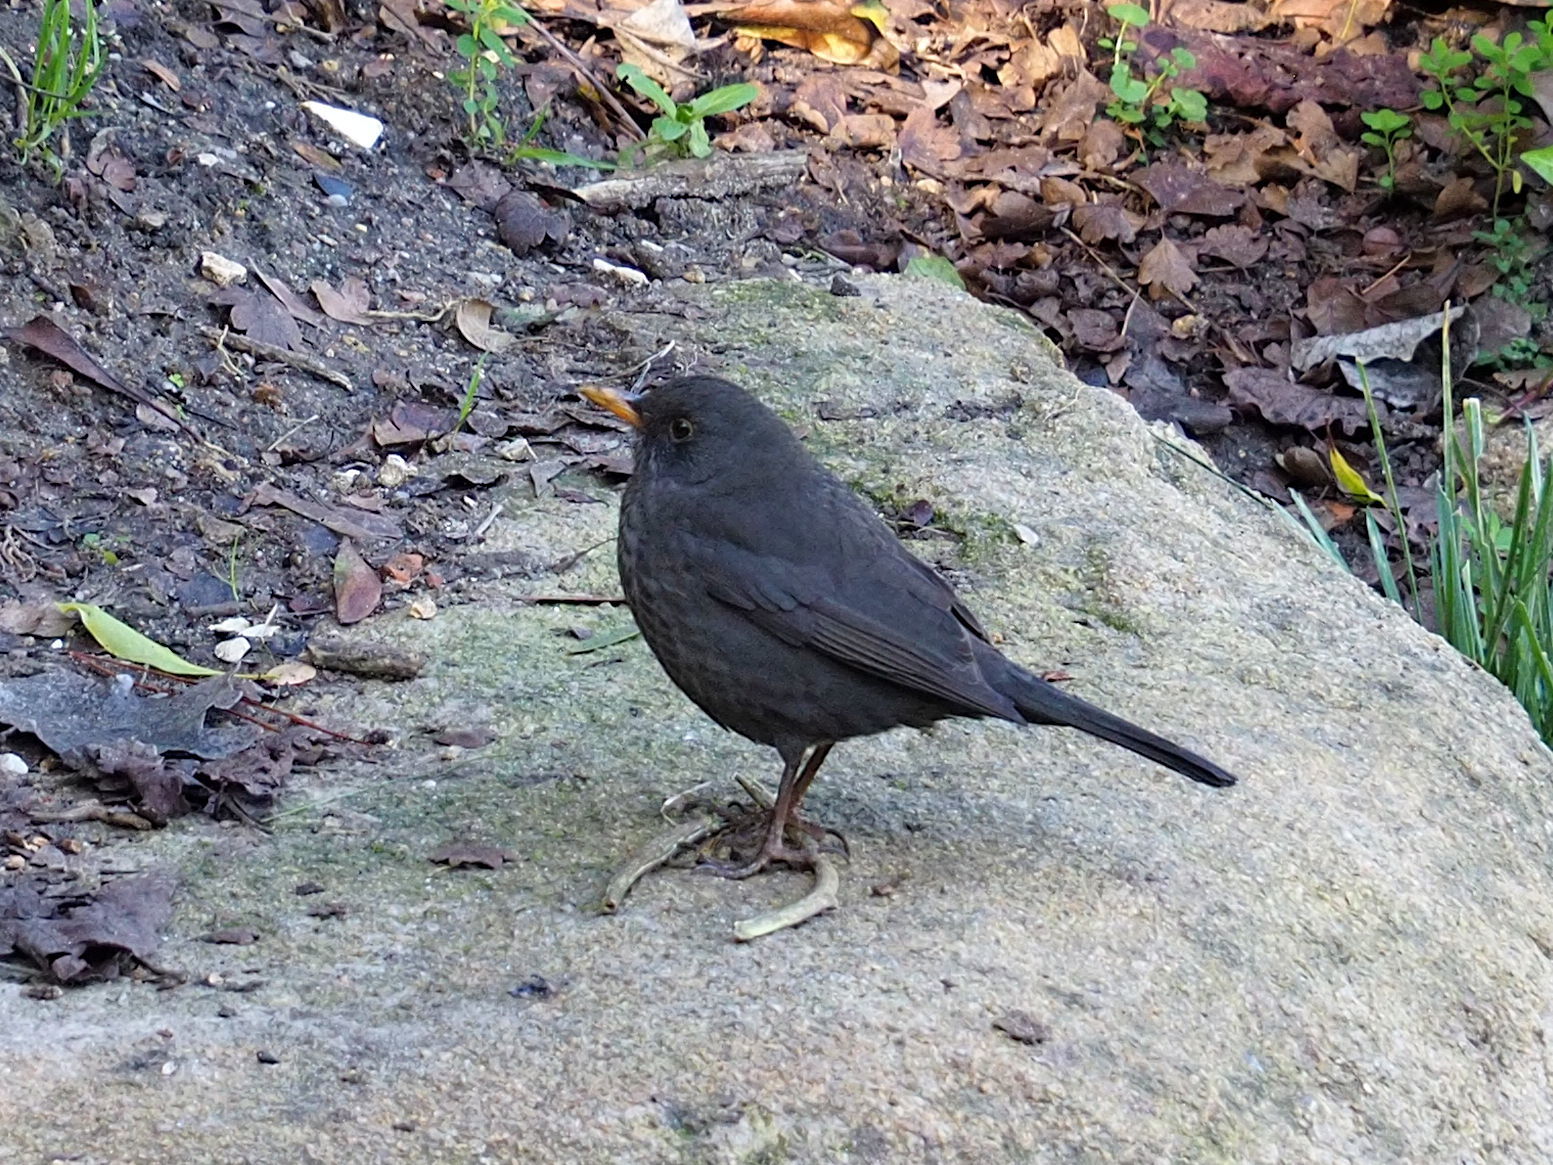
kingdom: Animalia
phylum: Chordata
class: Aves
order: Passeriformes
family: Turdidae
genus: Turdus
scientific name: Turdus merula
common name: Common blackbird
